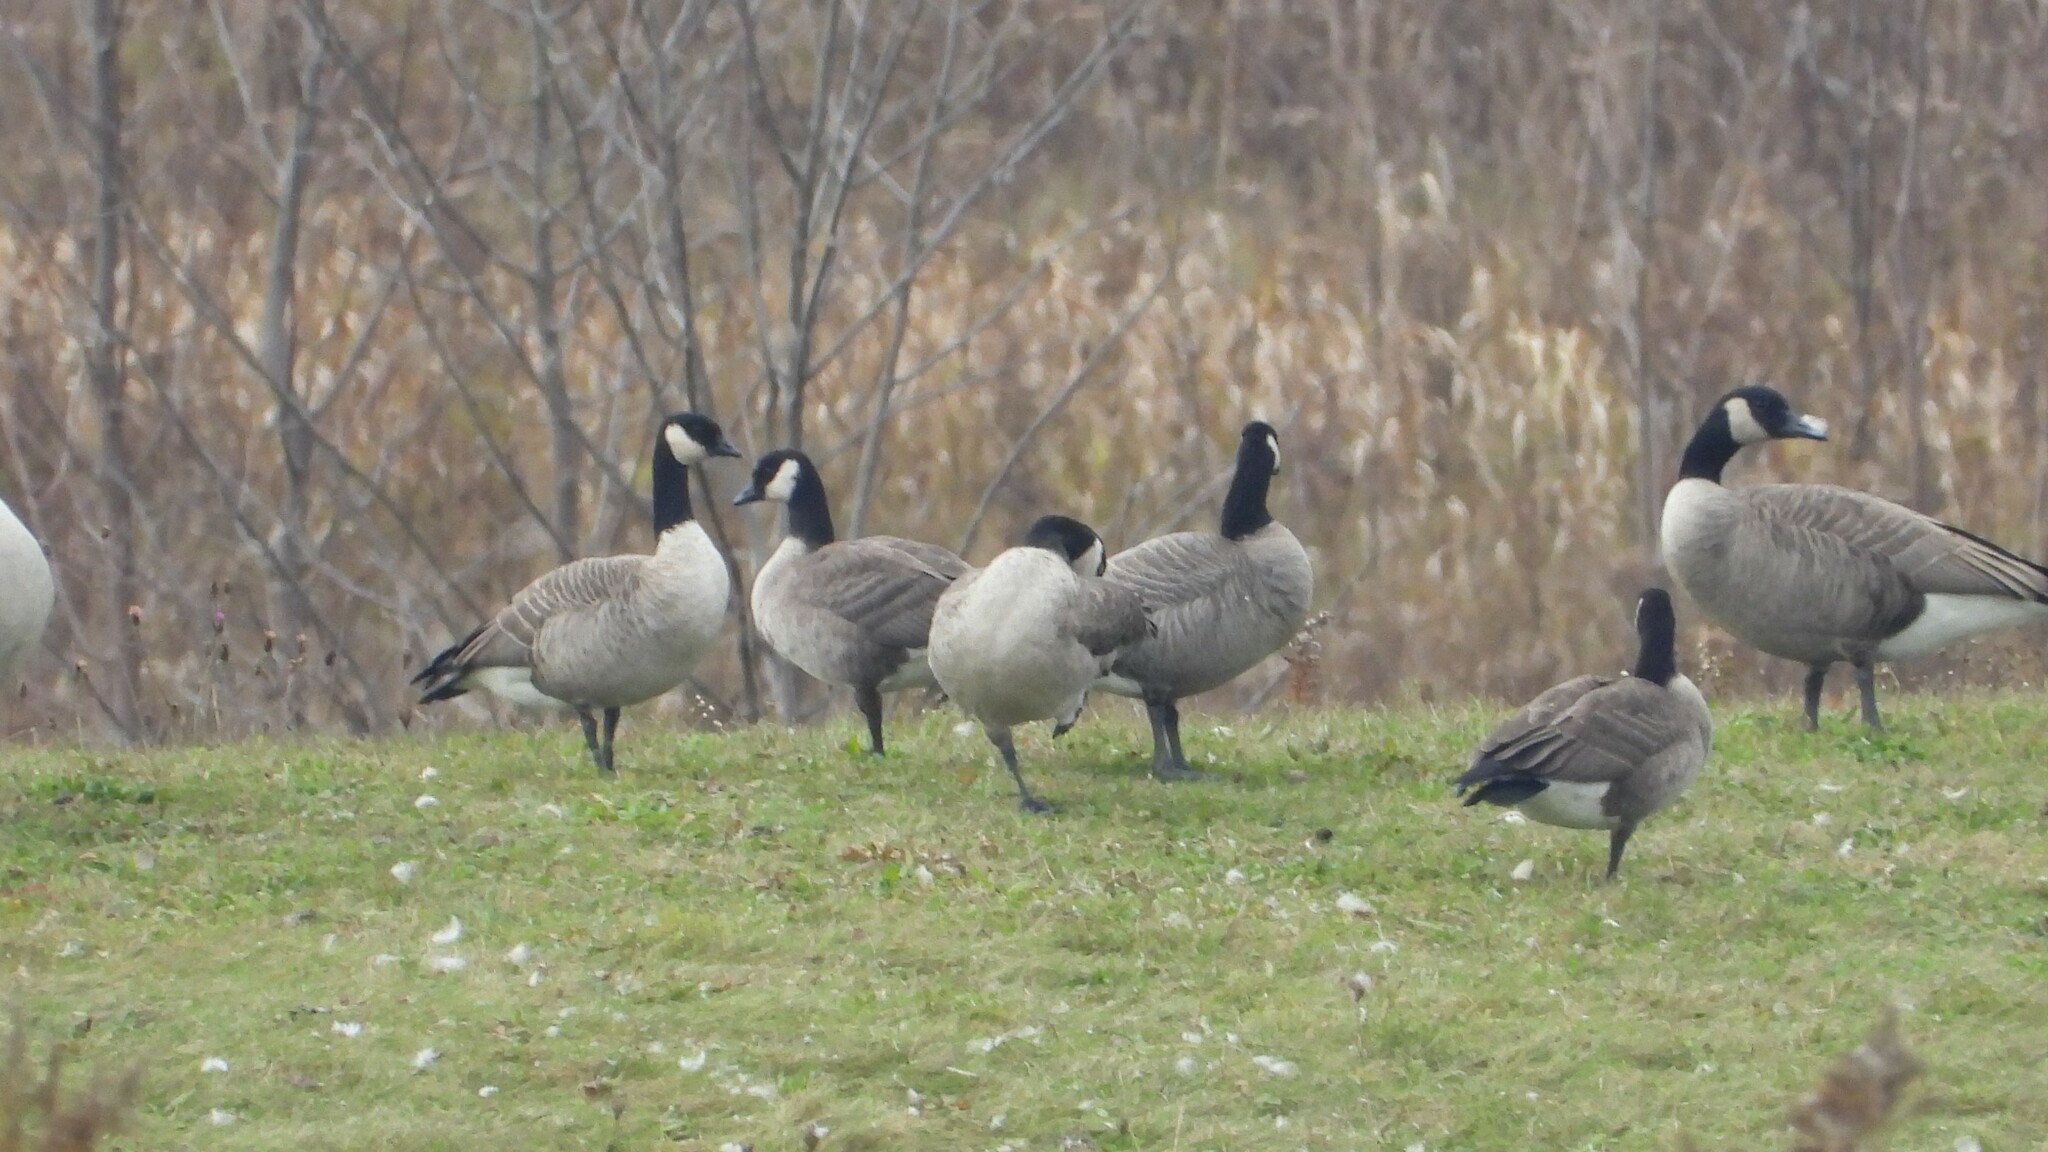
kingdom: Animalia
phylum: Chordata
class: Aves
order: Anseriformes
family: Anatidae
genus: Branta
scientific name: Branta hutchinsii
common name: Cackling goose
